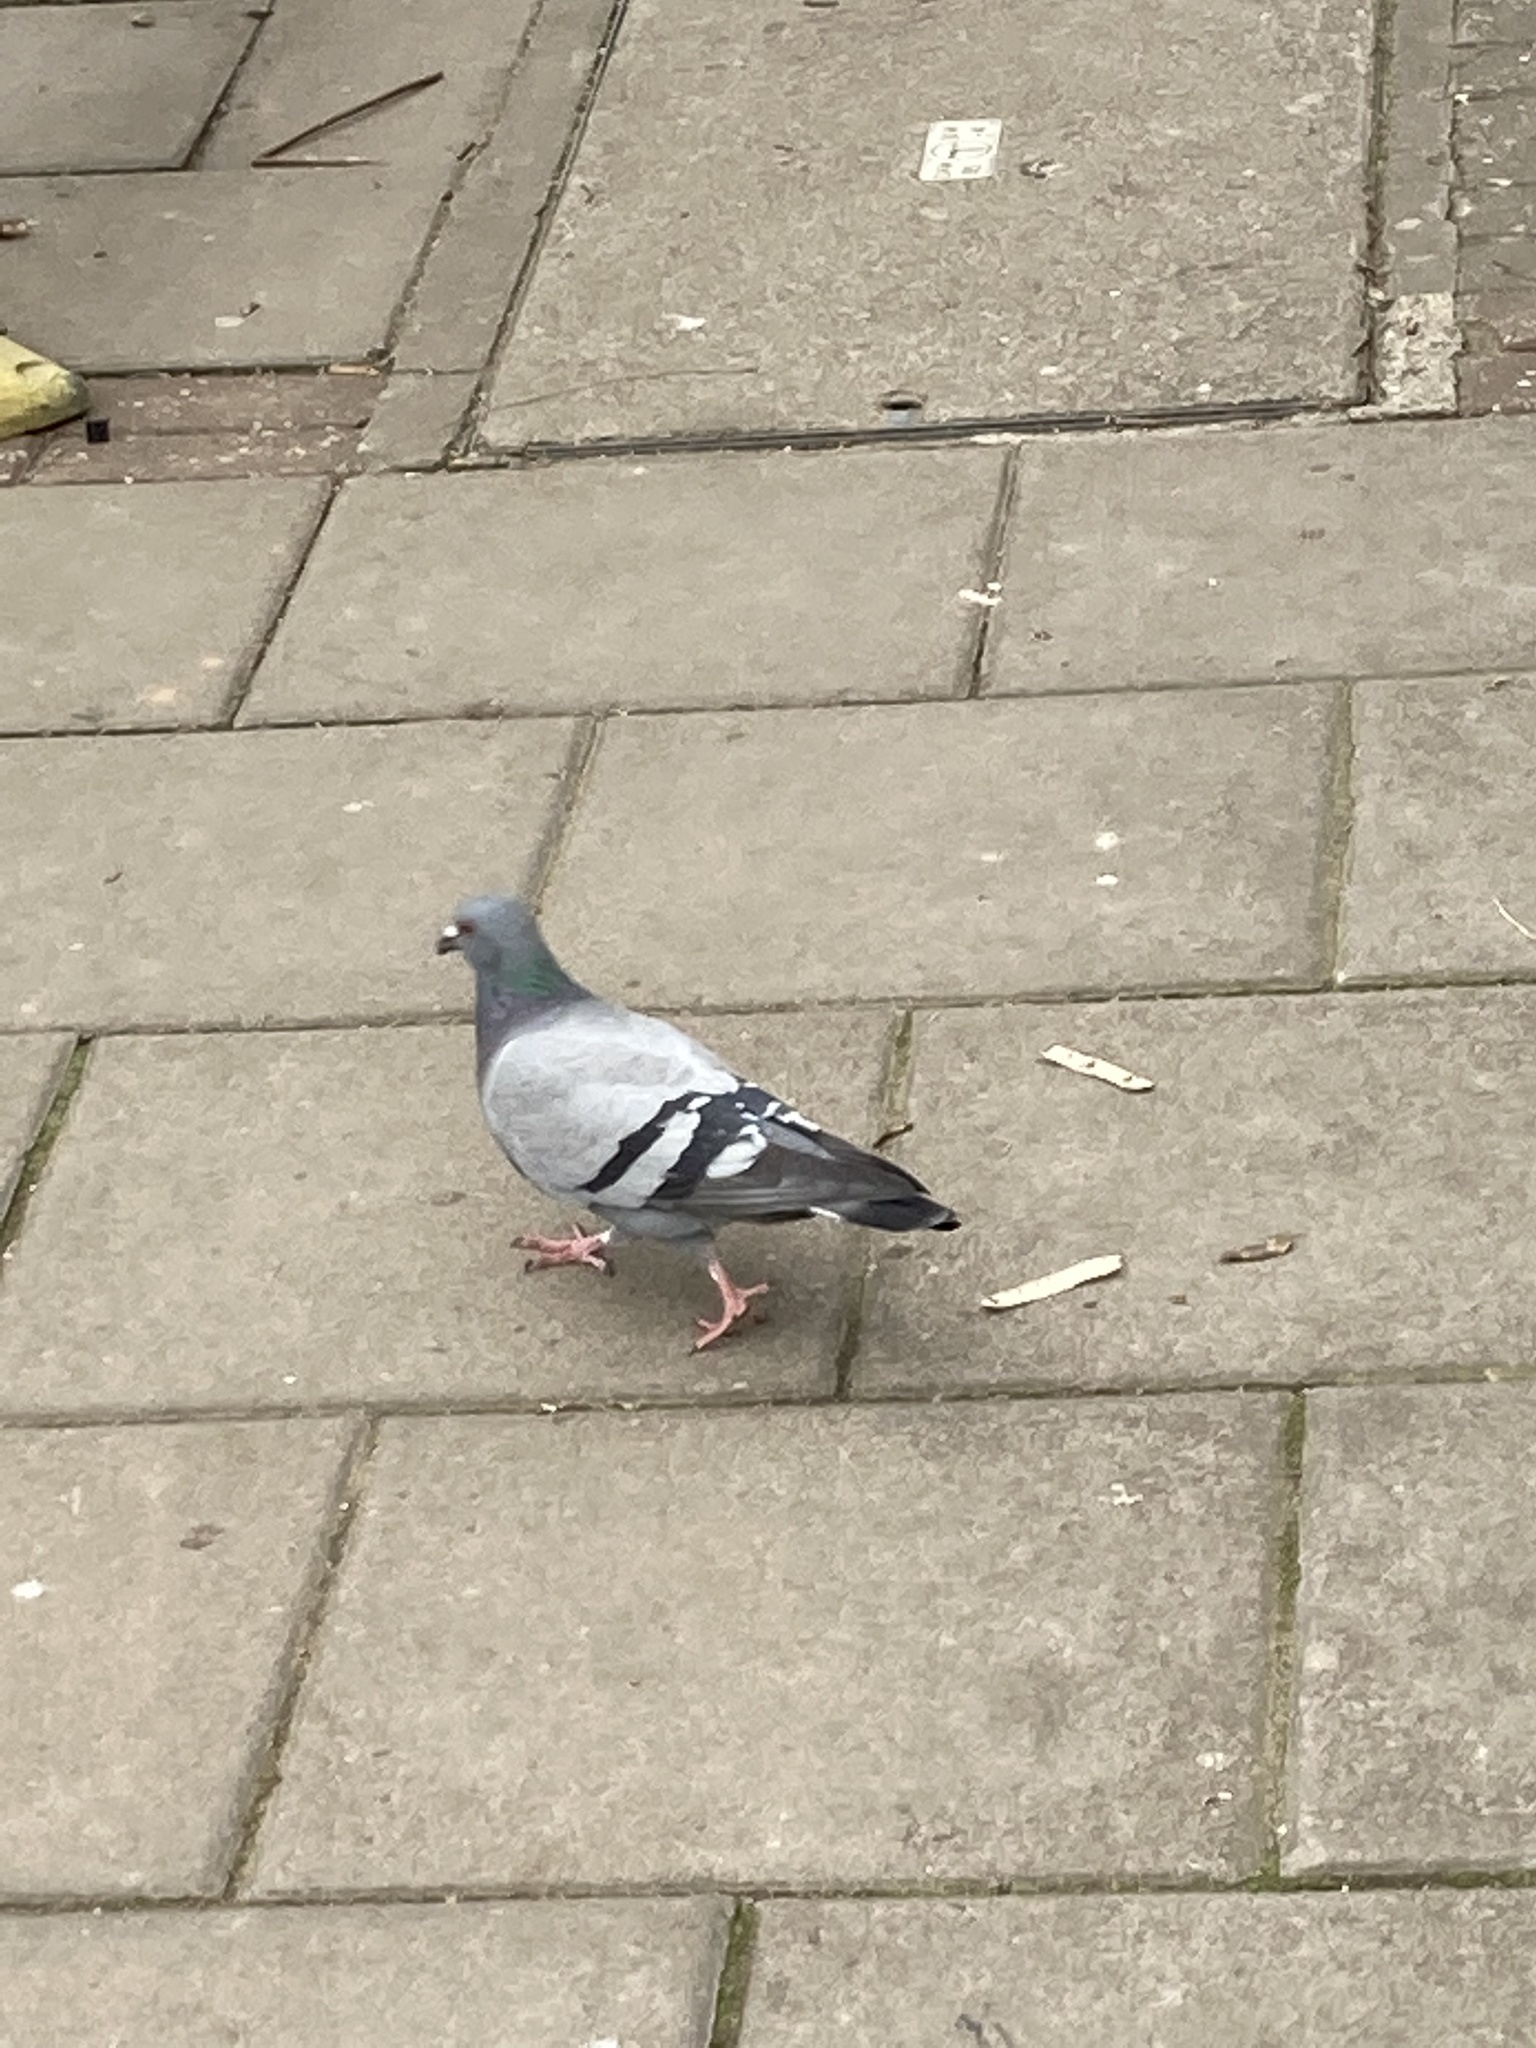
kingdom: Animalia
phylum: Chordata
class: Aves
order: Columbiformes
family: Columbidae
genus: Columba
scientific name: Columba livia
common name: Rock pigeon
